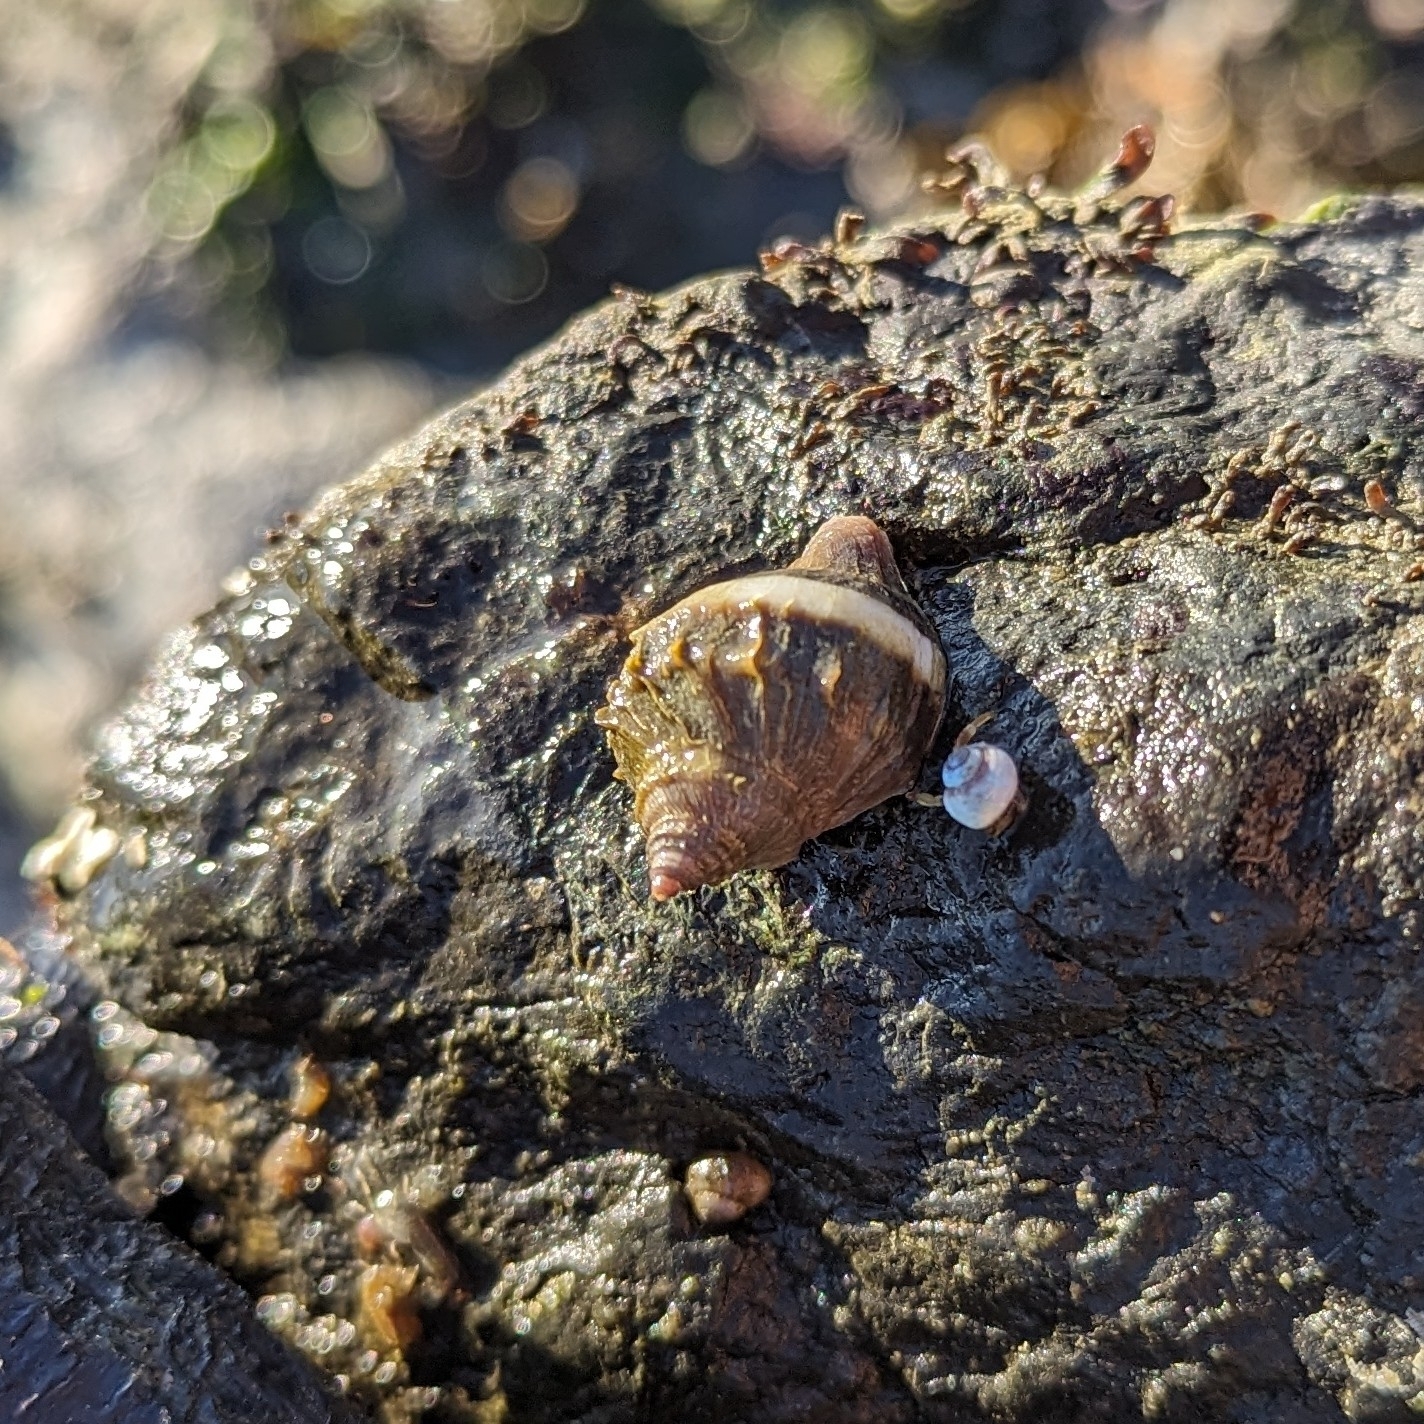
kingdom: Animalia
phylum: Mollusca
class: Gastropoda
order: Neogastropoda
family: Muricidae
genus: Nucella
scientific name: Nucella lamellosa
